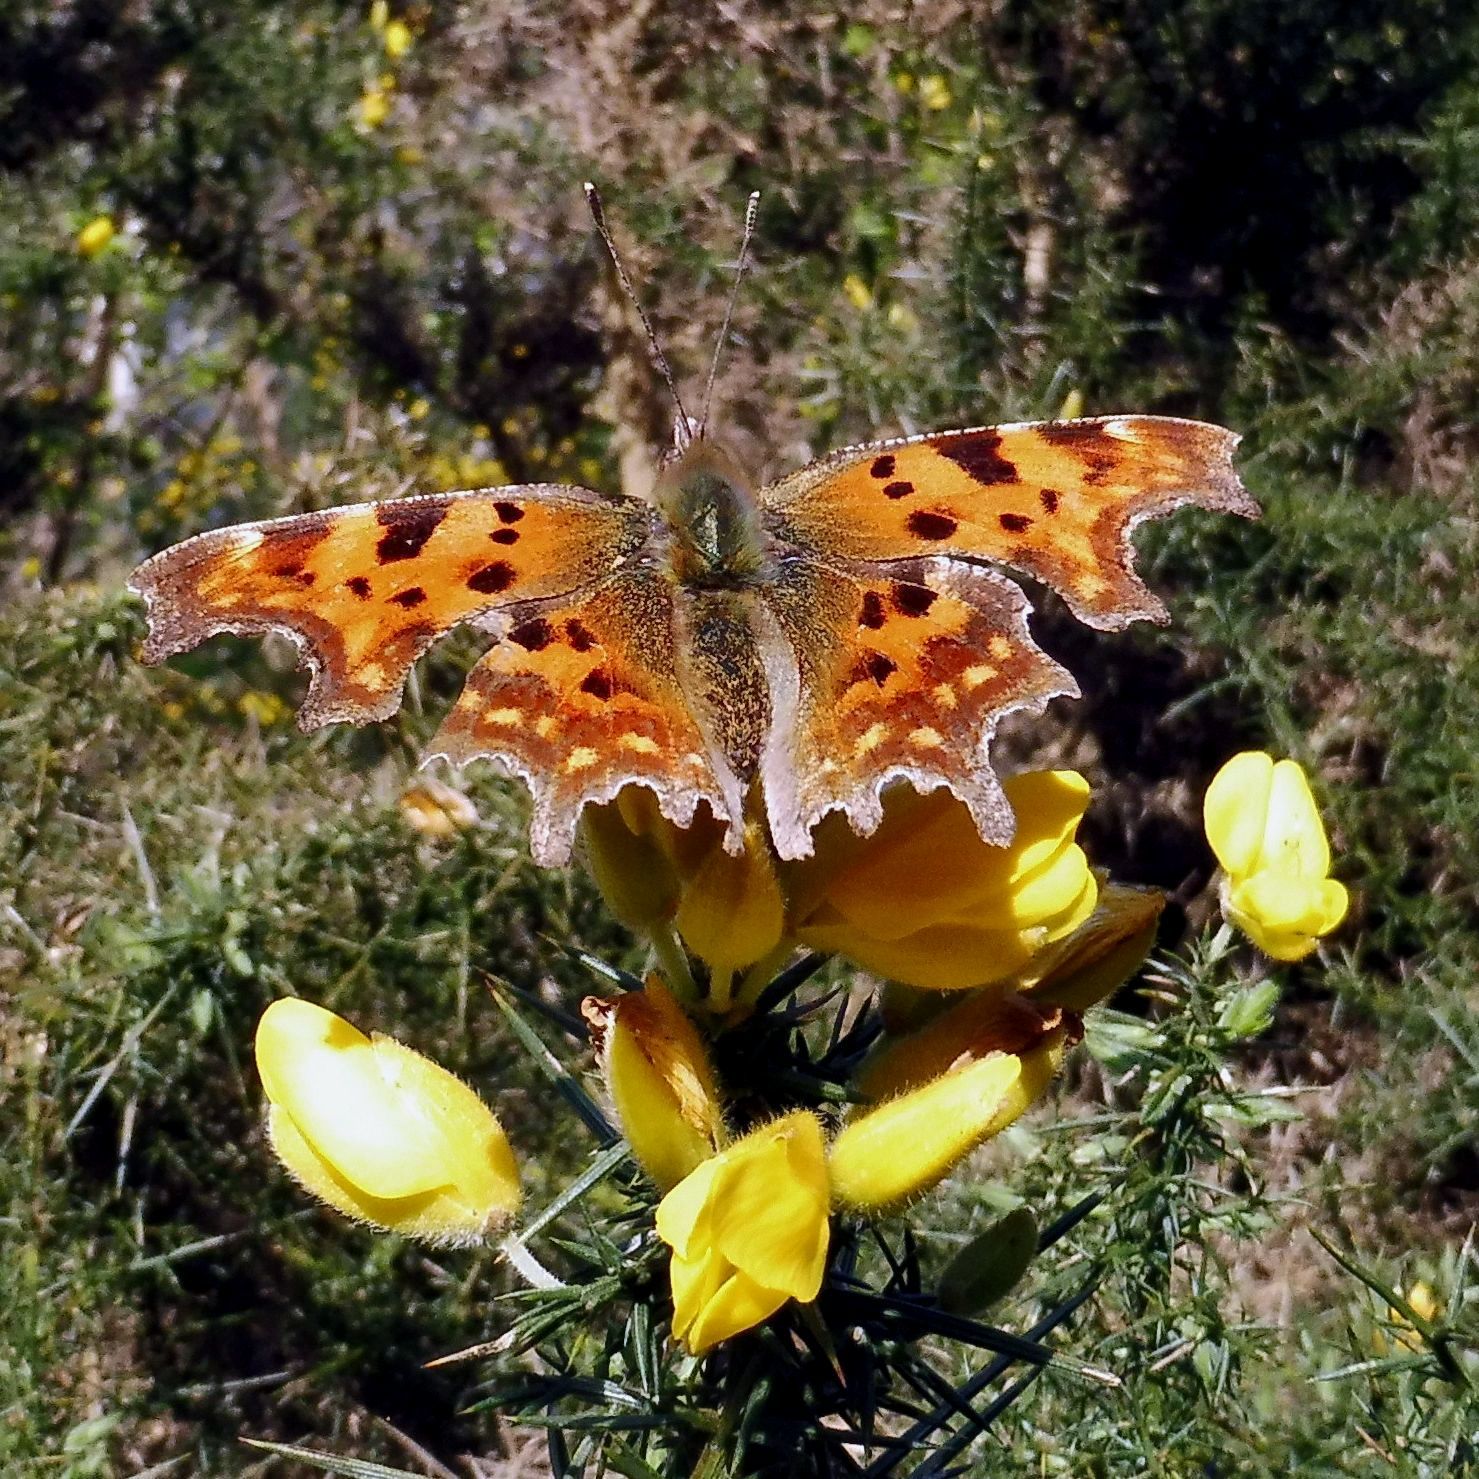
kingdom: Animalia
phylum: Arthropoda
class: Insecta
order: Lepidoptera
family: Nymphalidae
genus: Polygonia
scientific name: Polygonia c-album
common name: Comma
